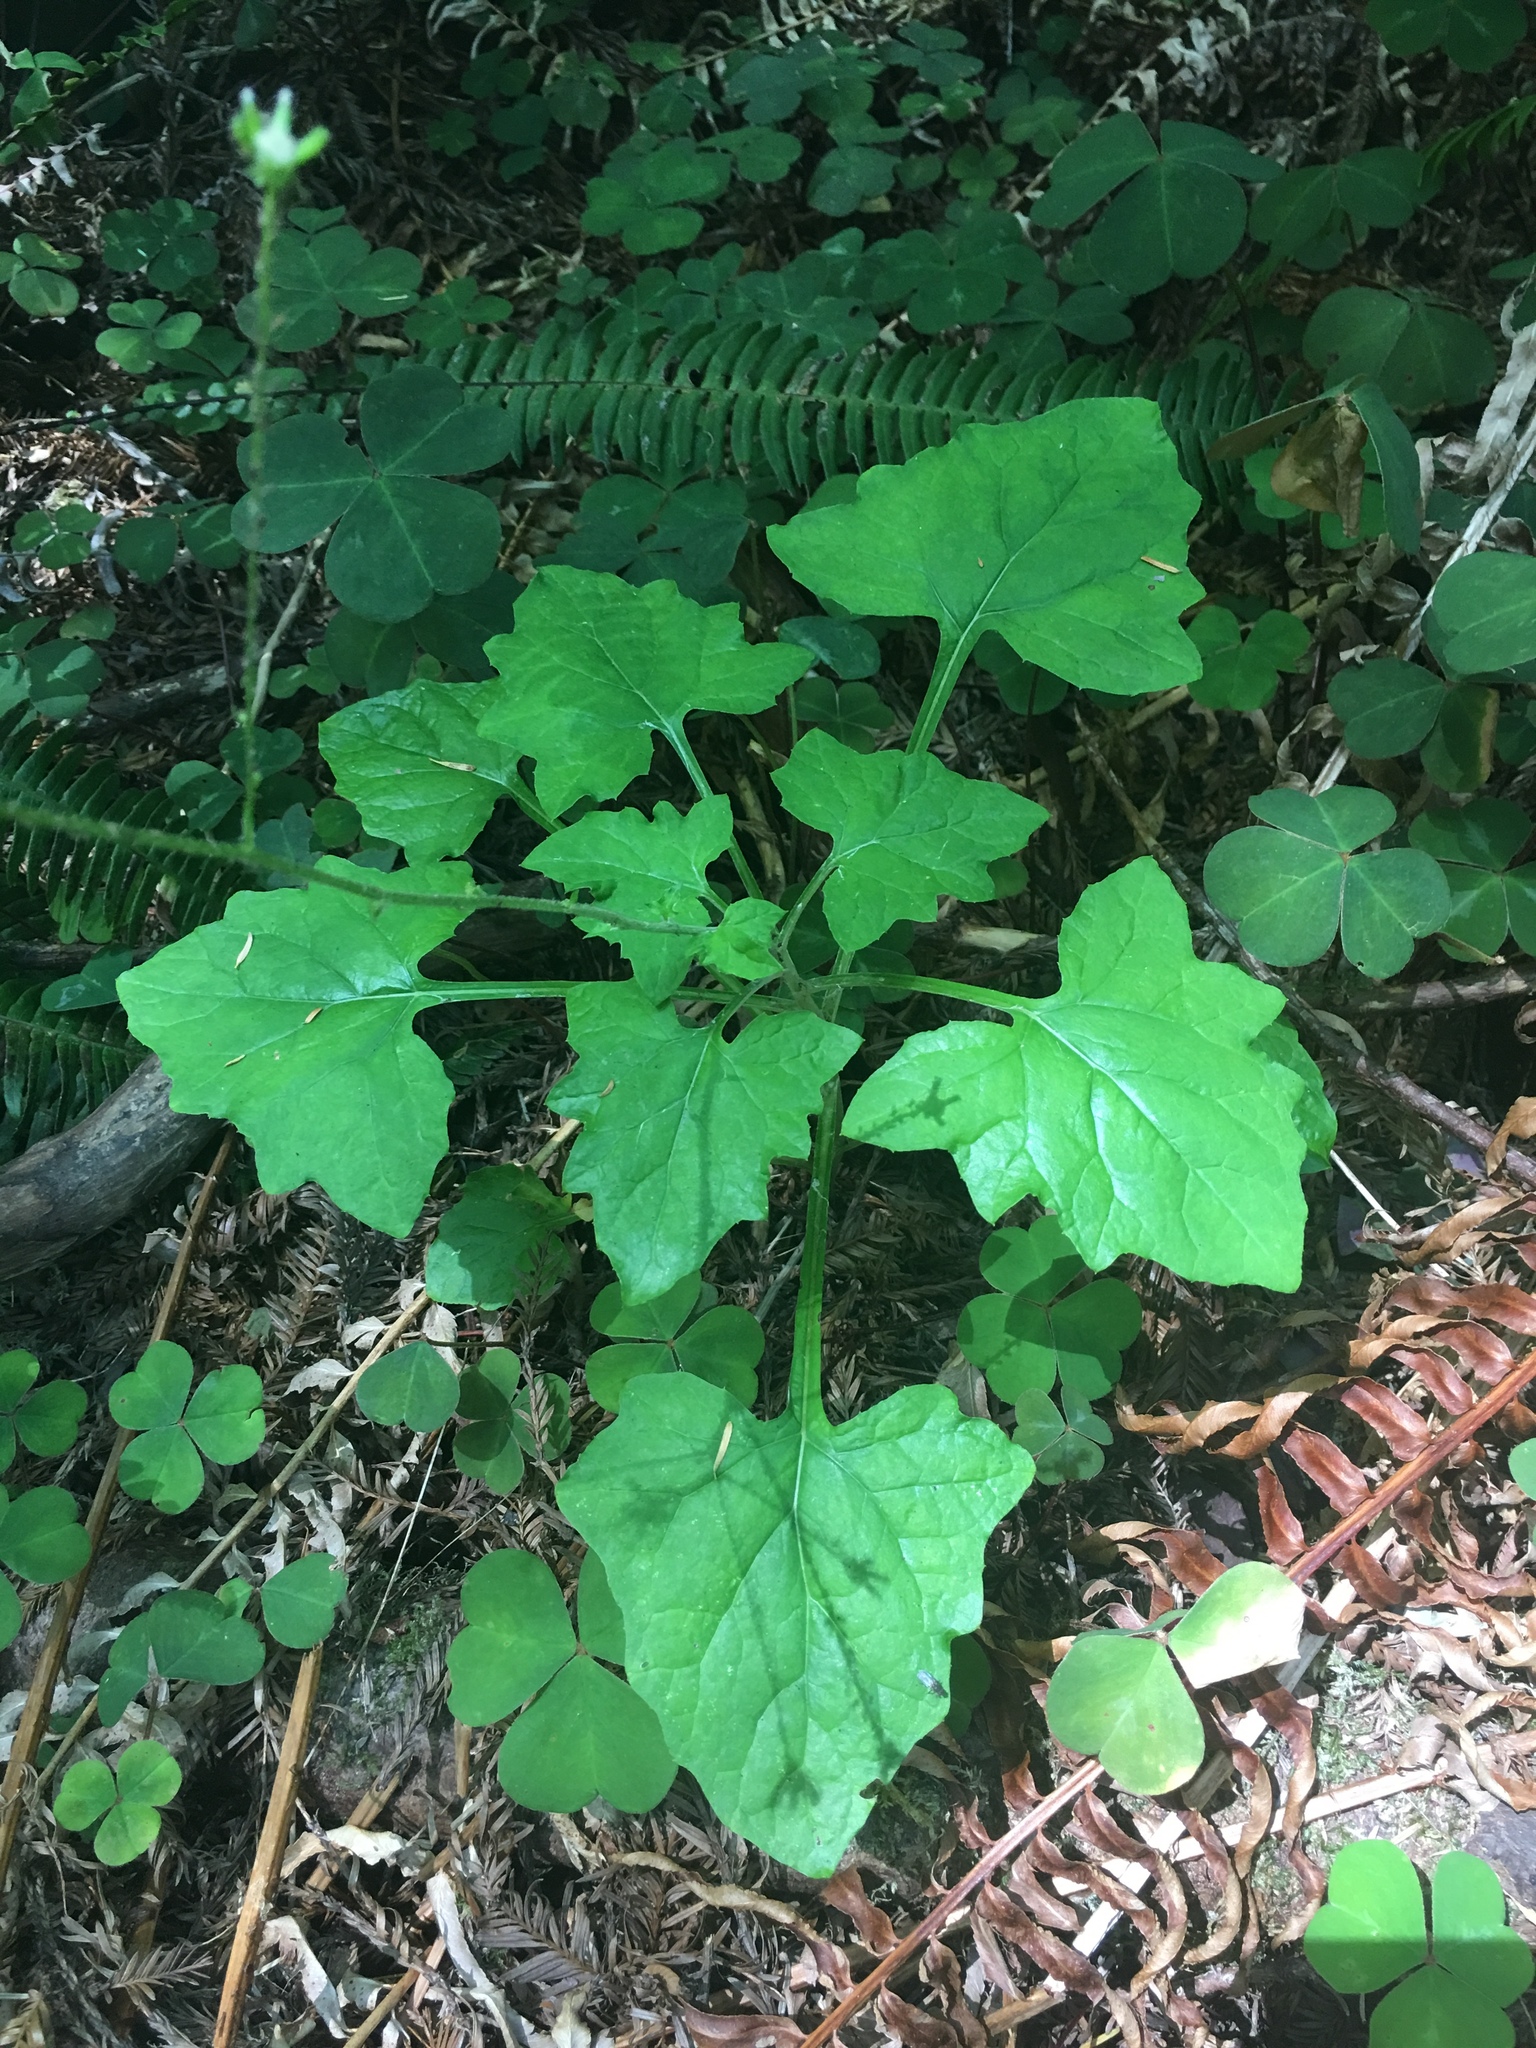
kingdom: Plantae
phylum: Tracheophyta
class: Magnoliopsida
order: Asterales
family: Asteraceae
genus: Adenocaulon
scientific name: Adenocaulon bicolor
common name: Trailplant
